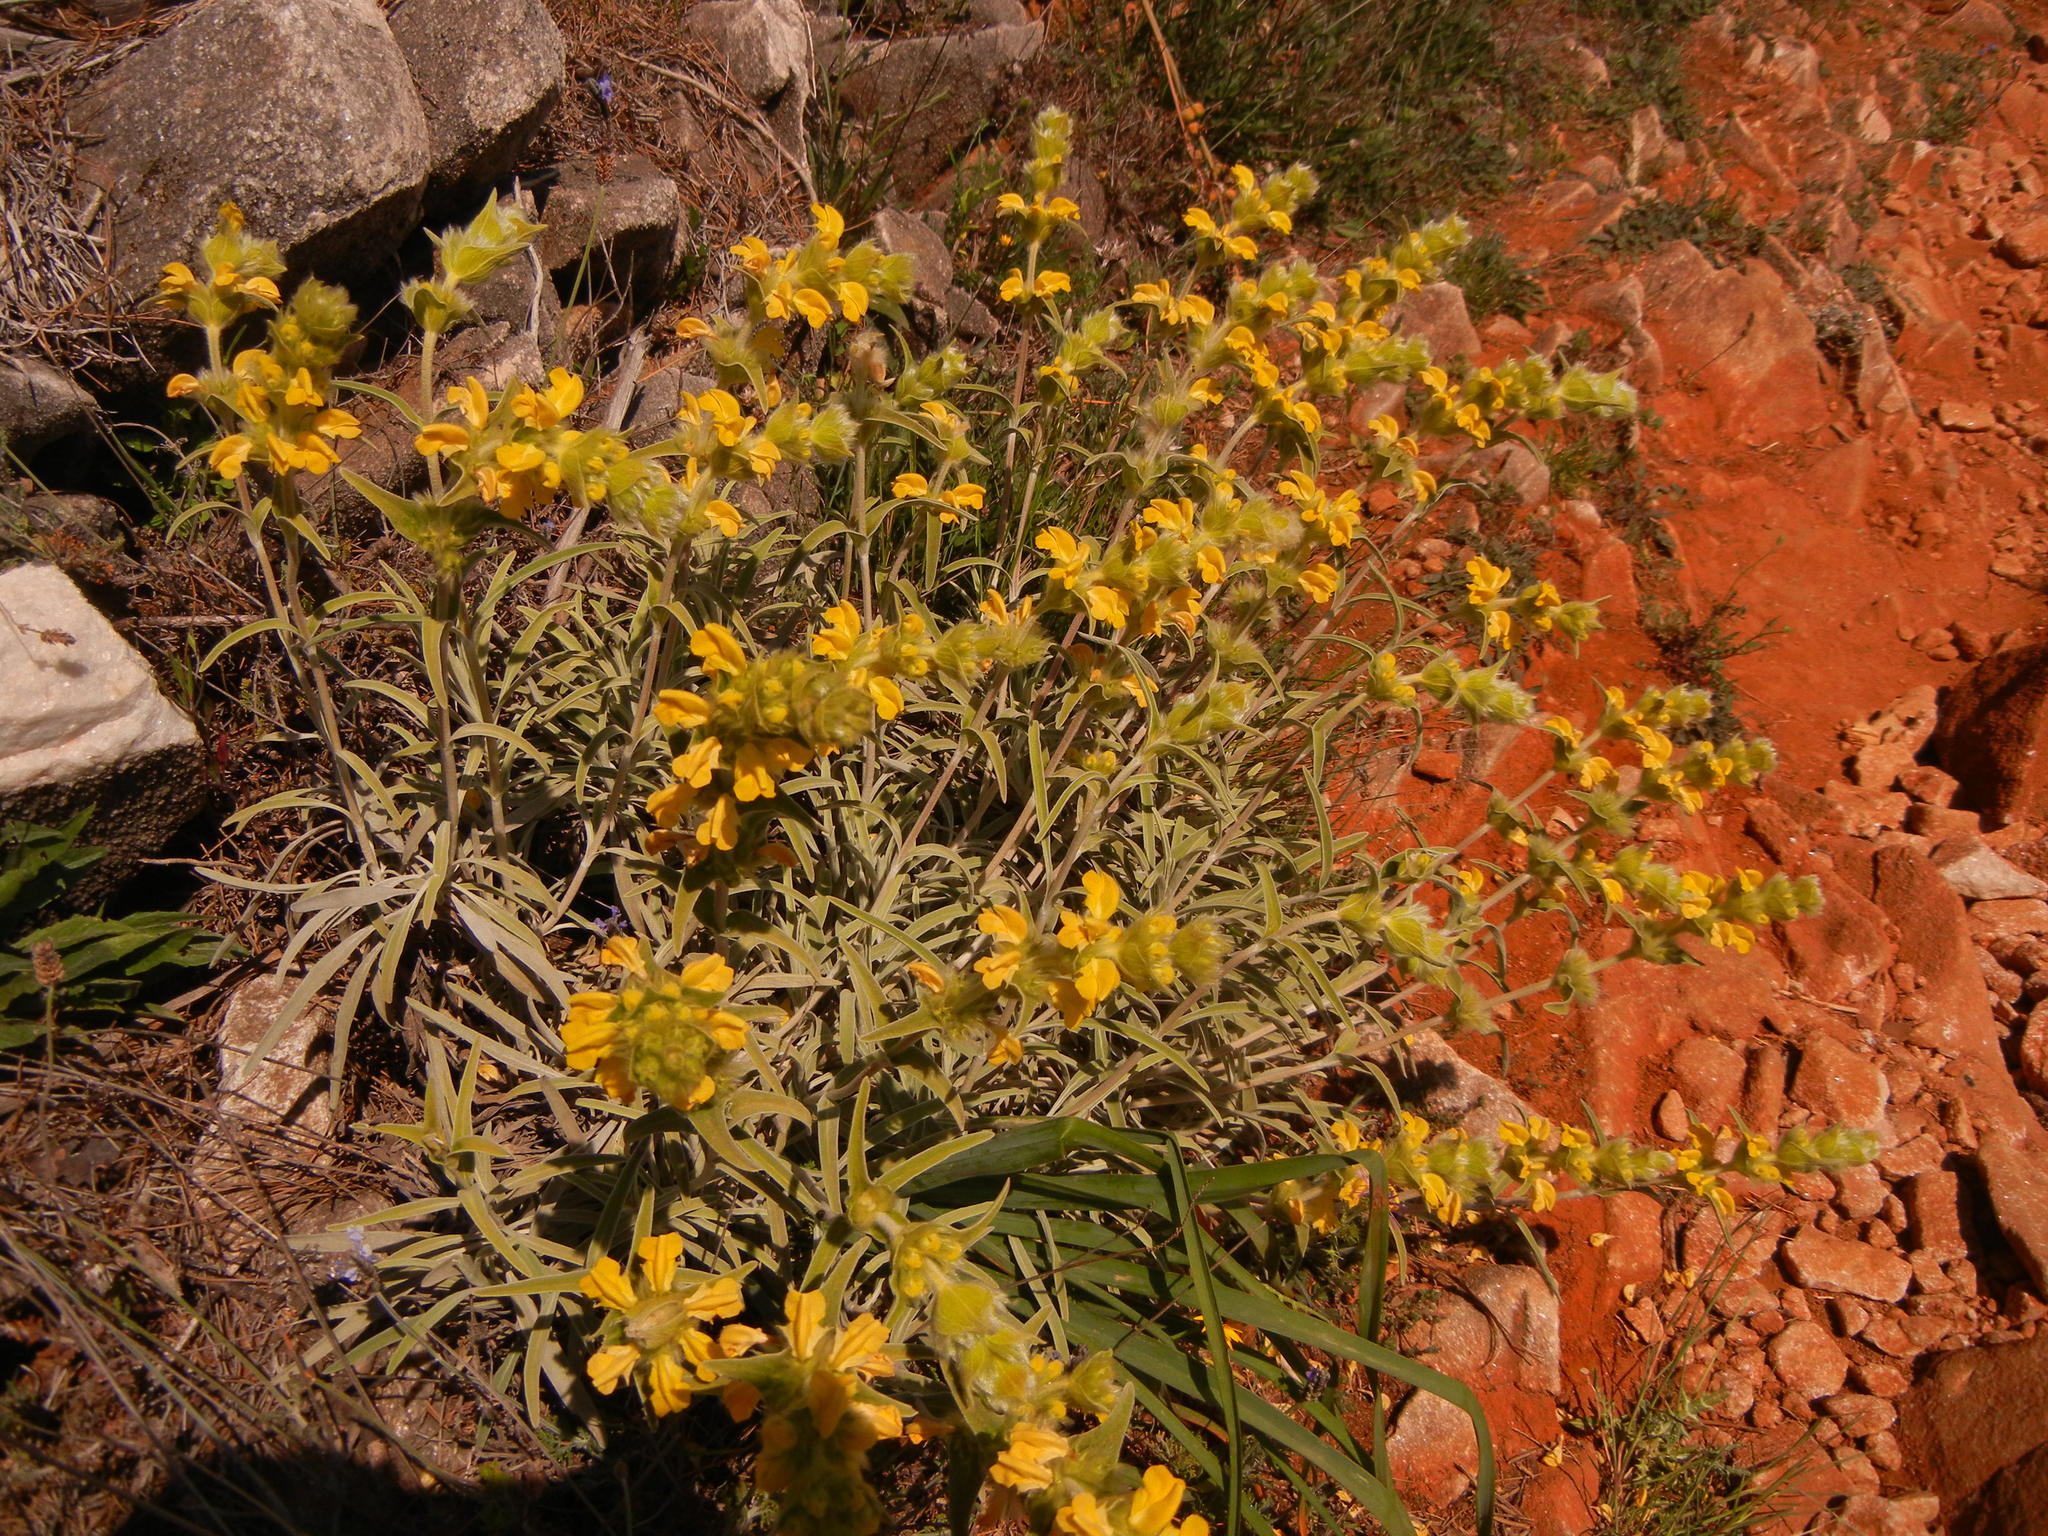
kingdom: Plantae
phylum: Tracheophyta
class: Magnoliopsida
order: Lamiales
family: Lamiaceae
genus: Phlomis
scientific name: Phlomis lychnitis
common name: Lampwickplant
